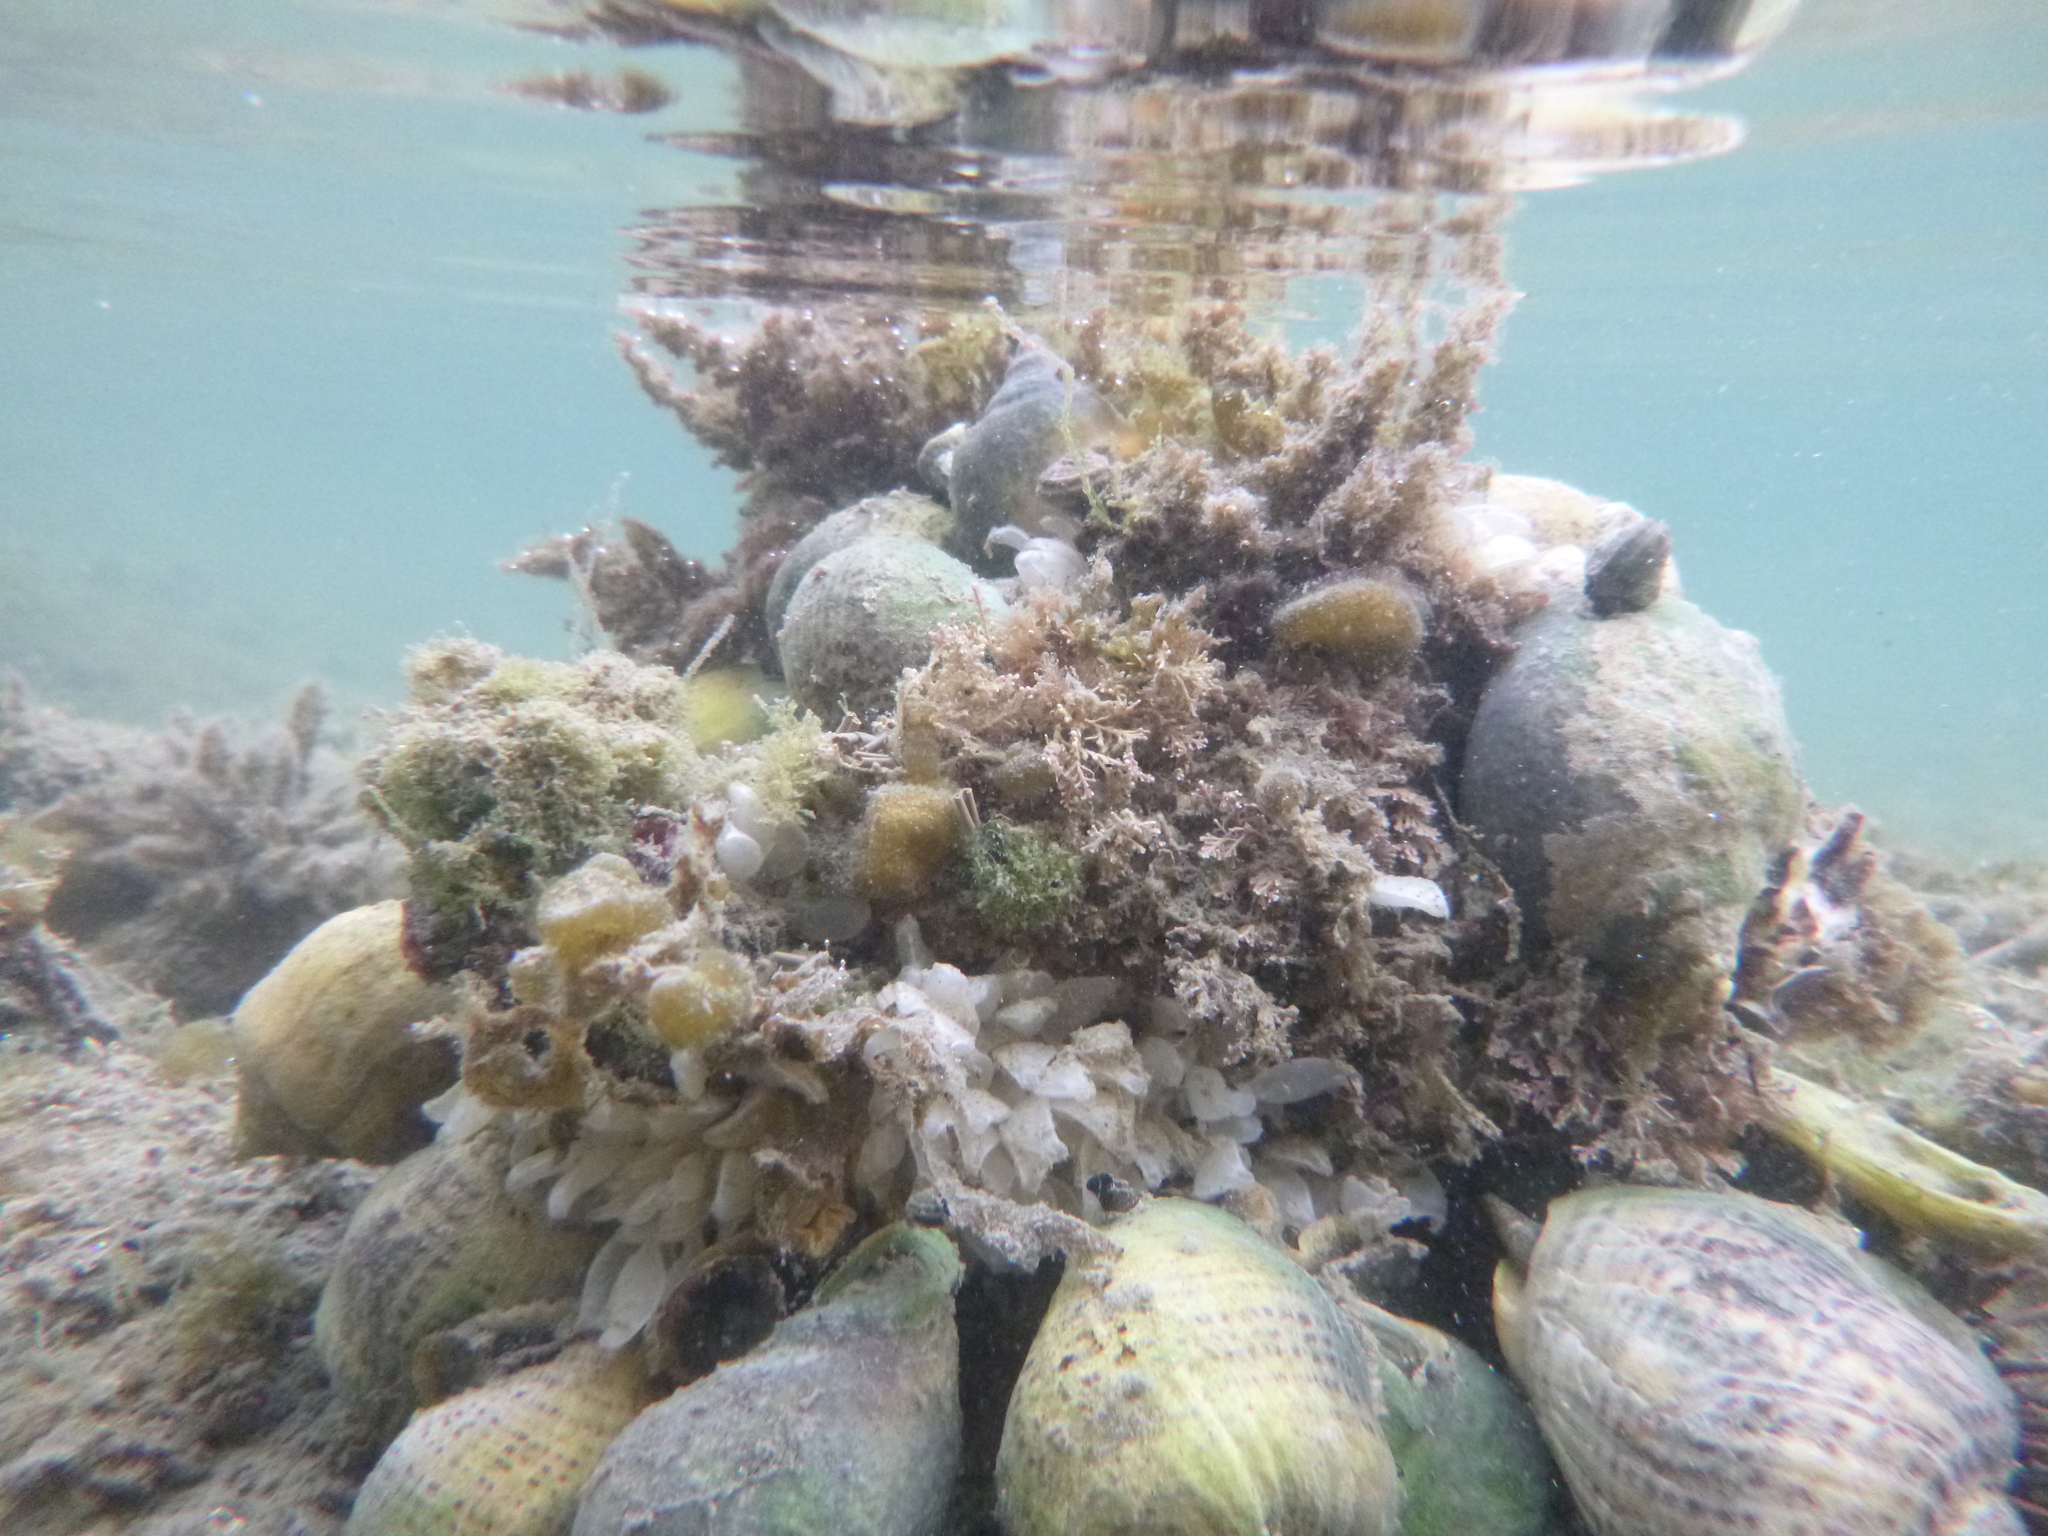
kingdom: Animalia
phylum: Mollusca
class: Gastropoda
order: Neogastropoda
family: Cominellidae
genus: Cominella
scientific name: Cominella adspersa
